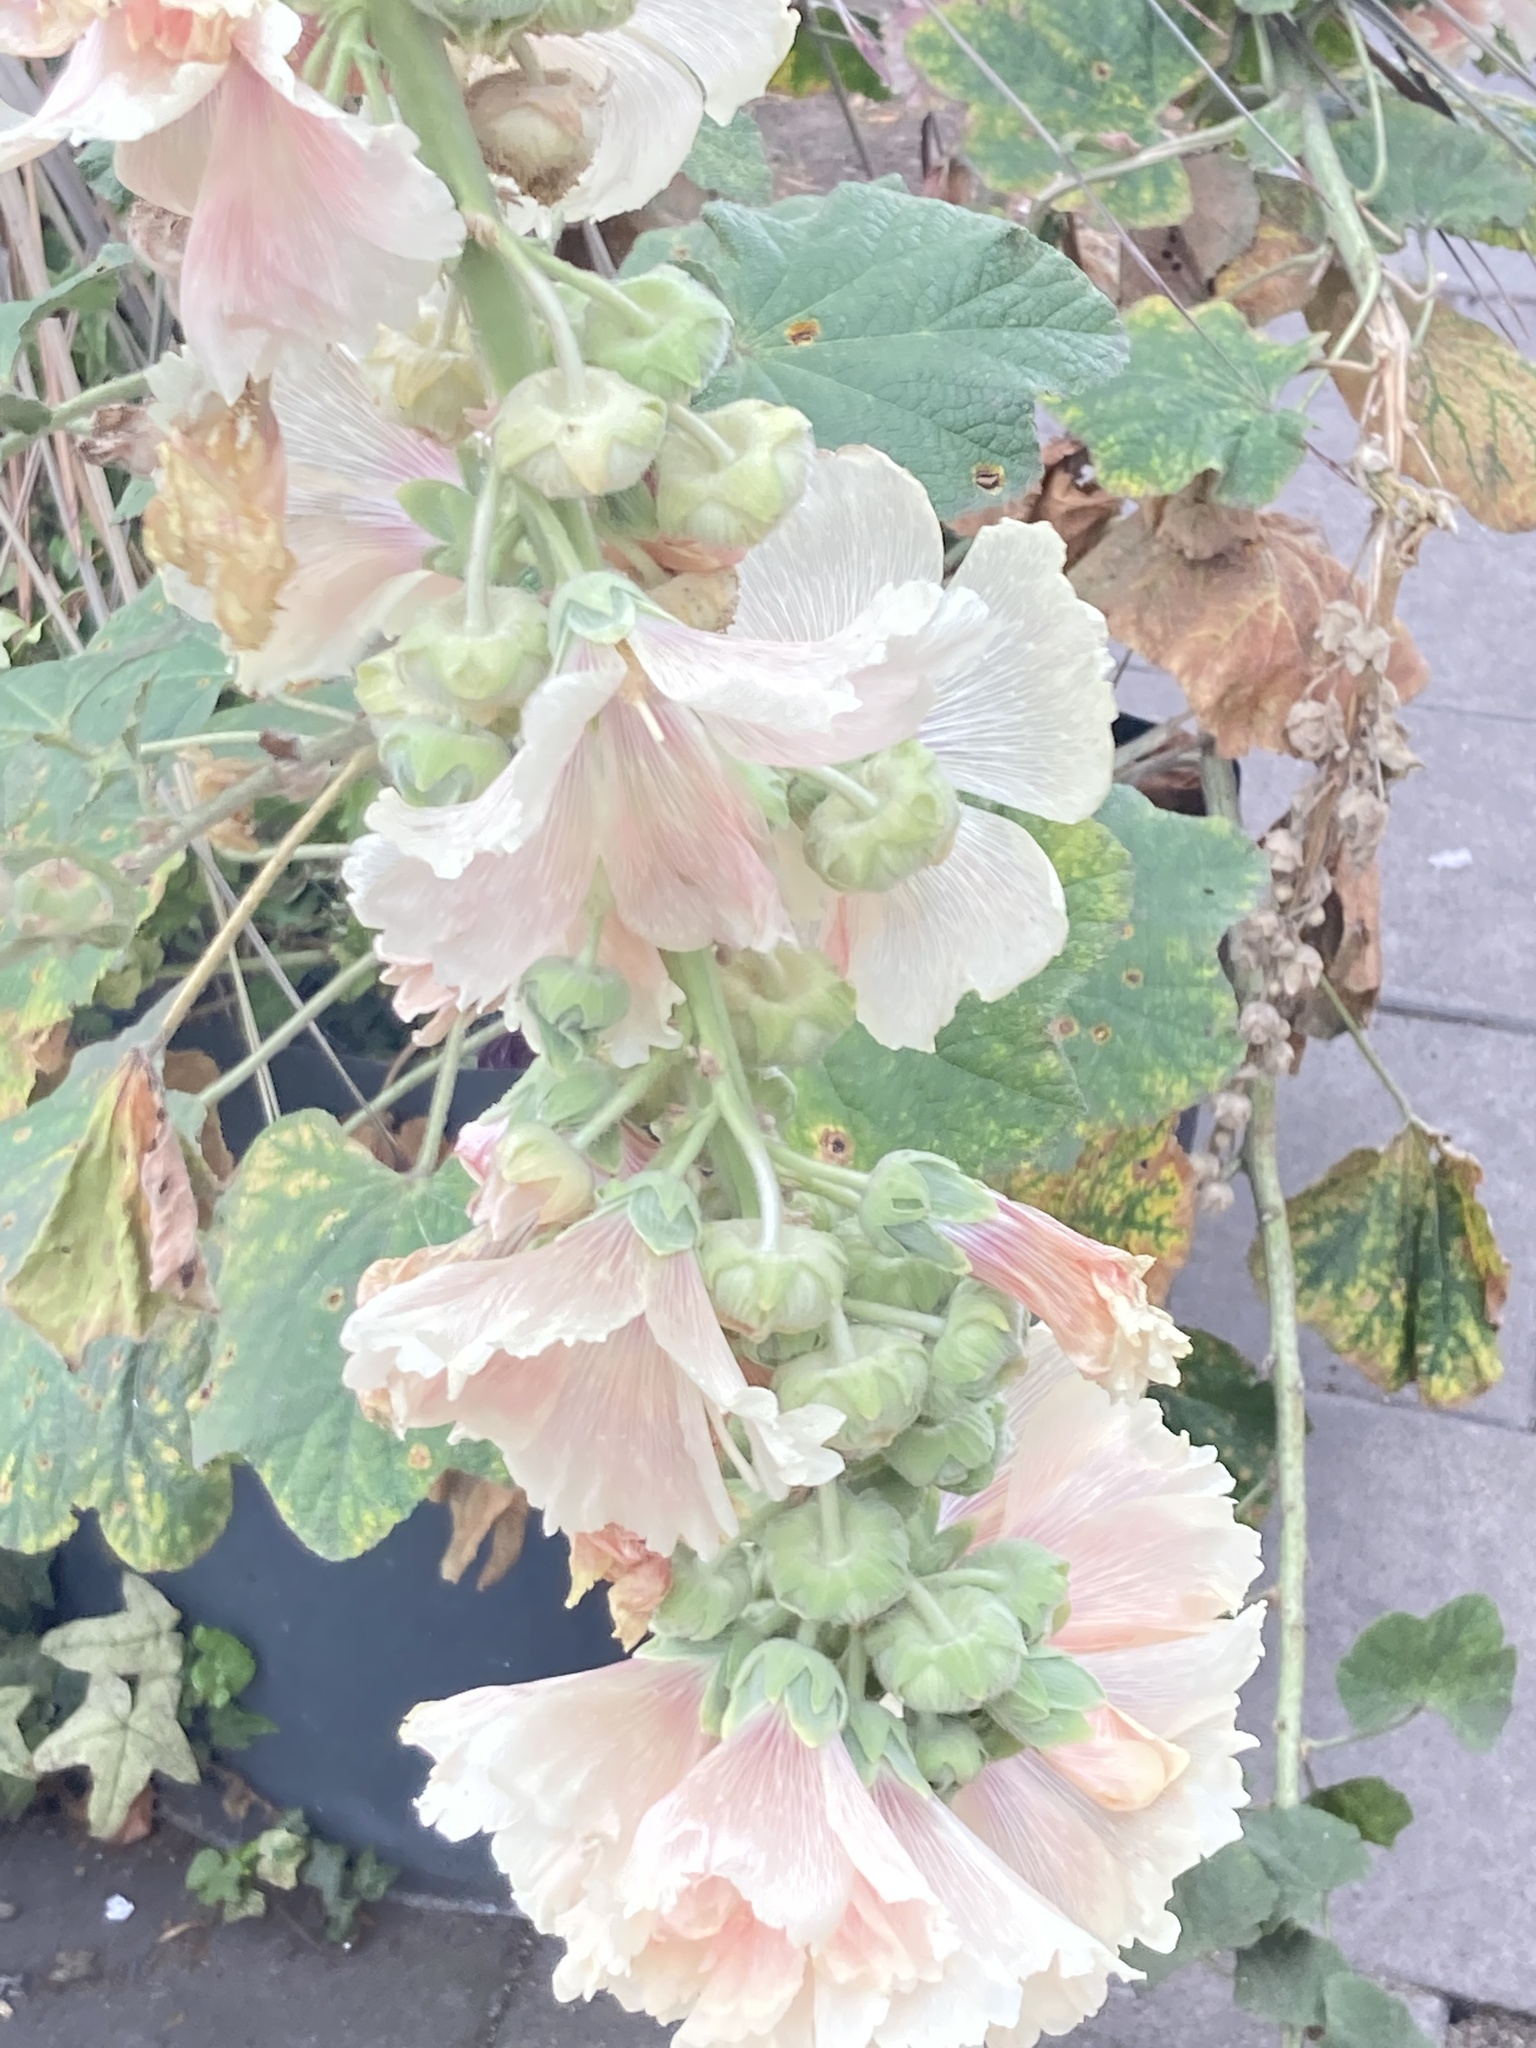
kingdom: Plantae
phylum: Tracheophyta
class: Magnoliopsida
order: Malvales
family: Malvaceae
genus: Alcea
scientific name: Alcea rosea
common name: Hollyhock
